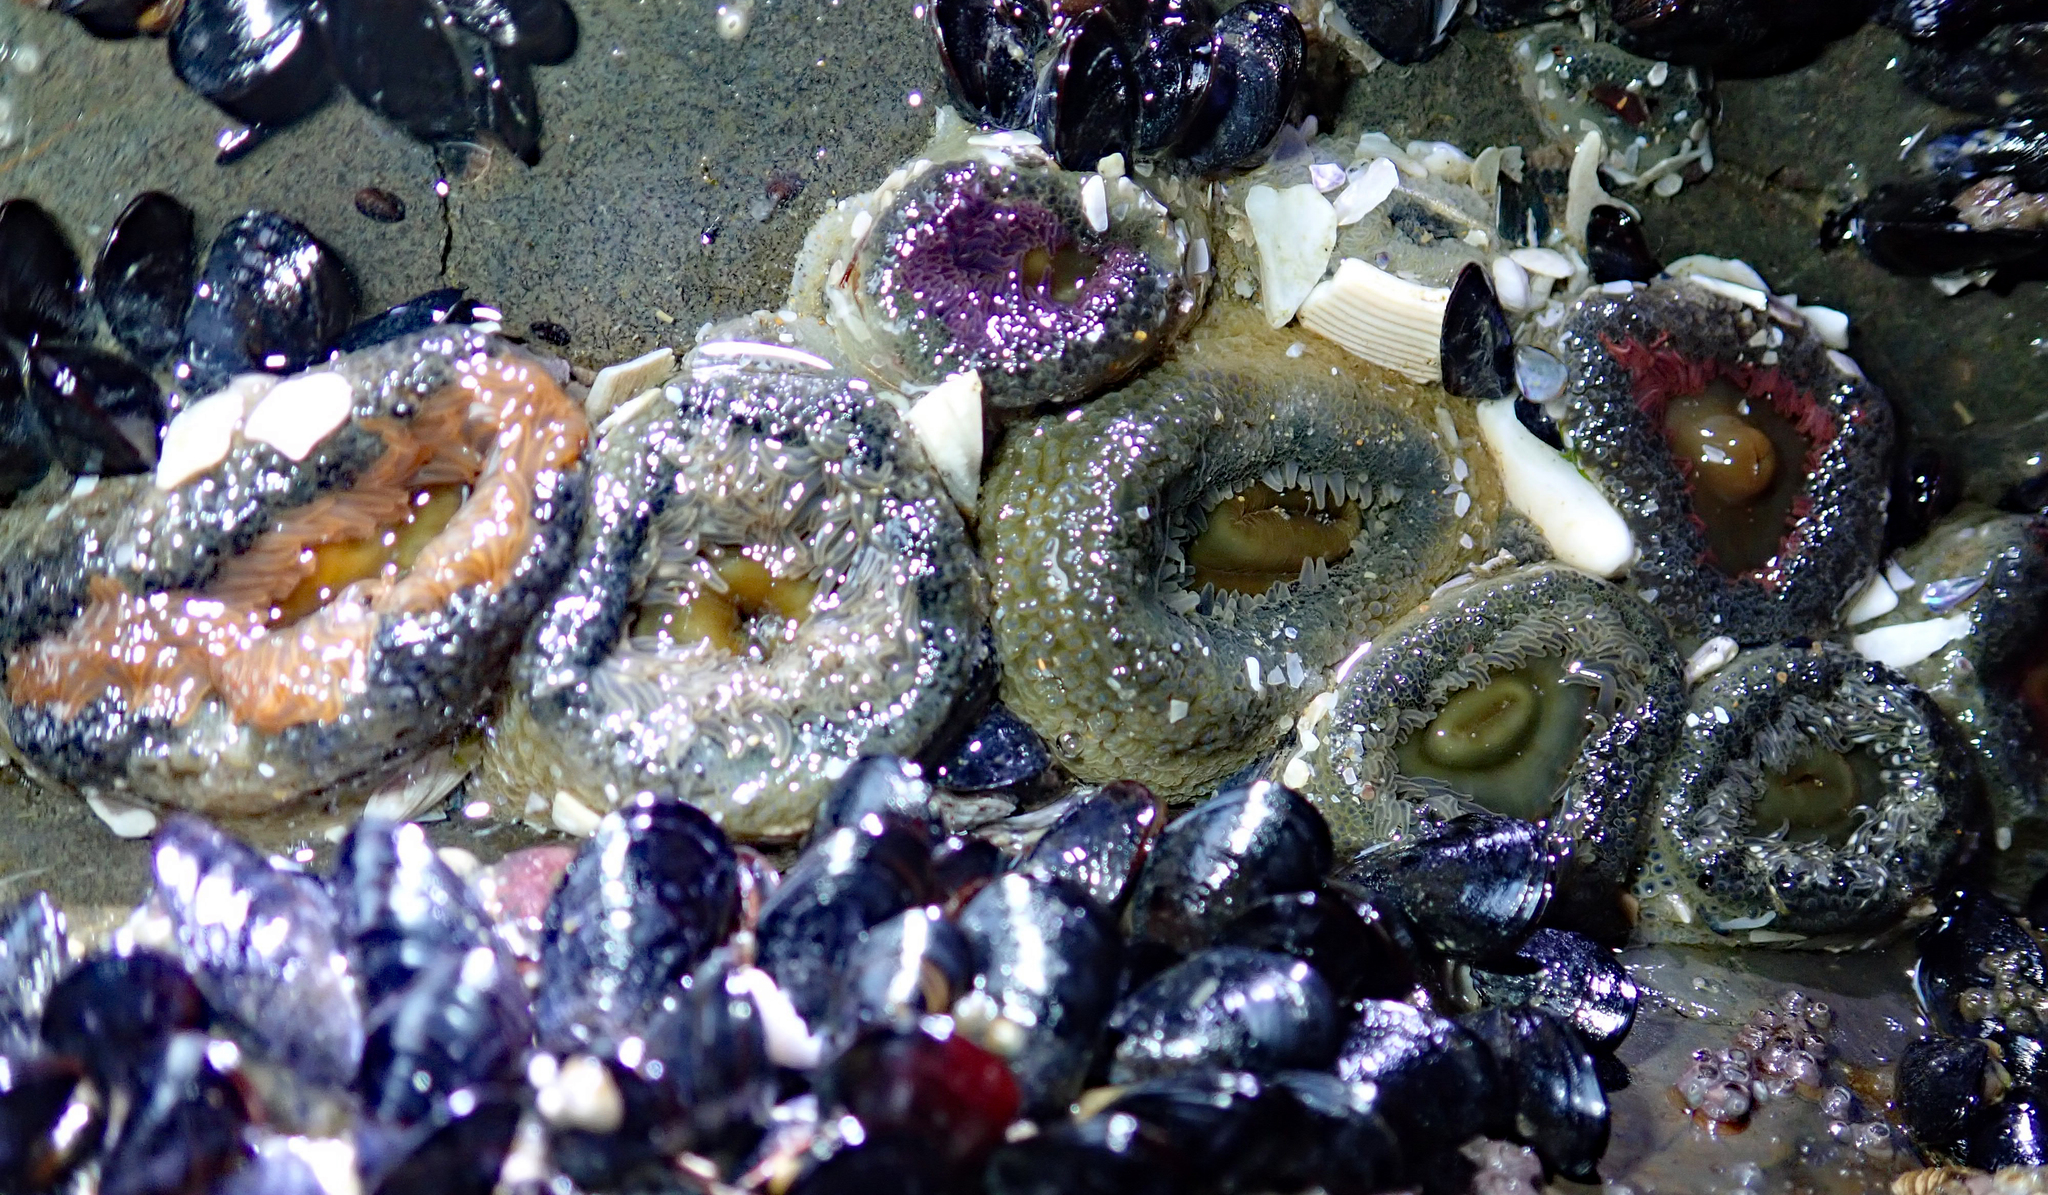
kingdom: Animalia
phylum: Cnidaria
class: Anthozoa
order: Actiniaria
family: Actiniidae
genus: Oulactis
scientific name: Oulactis magna
